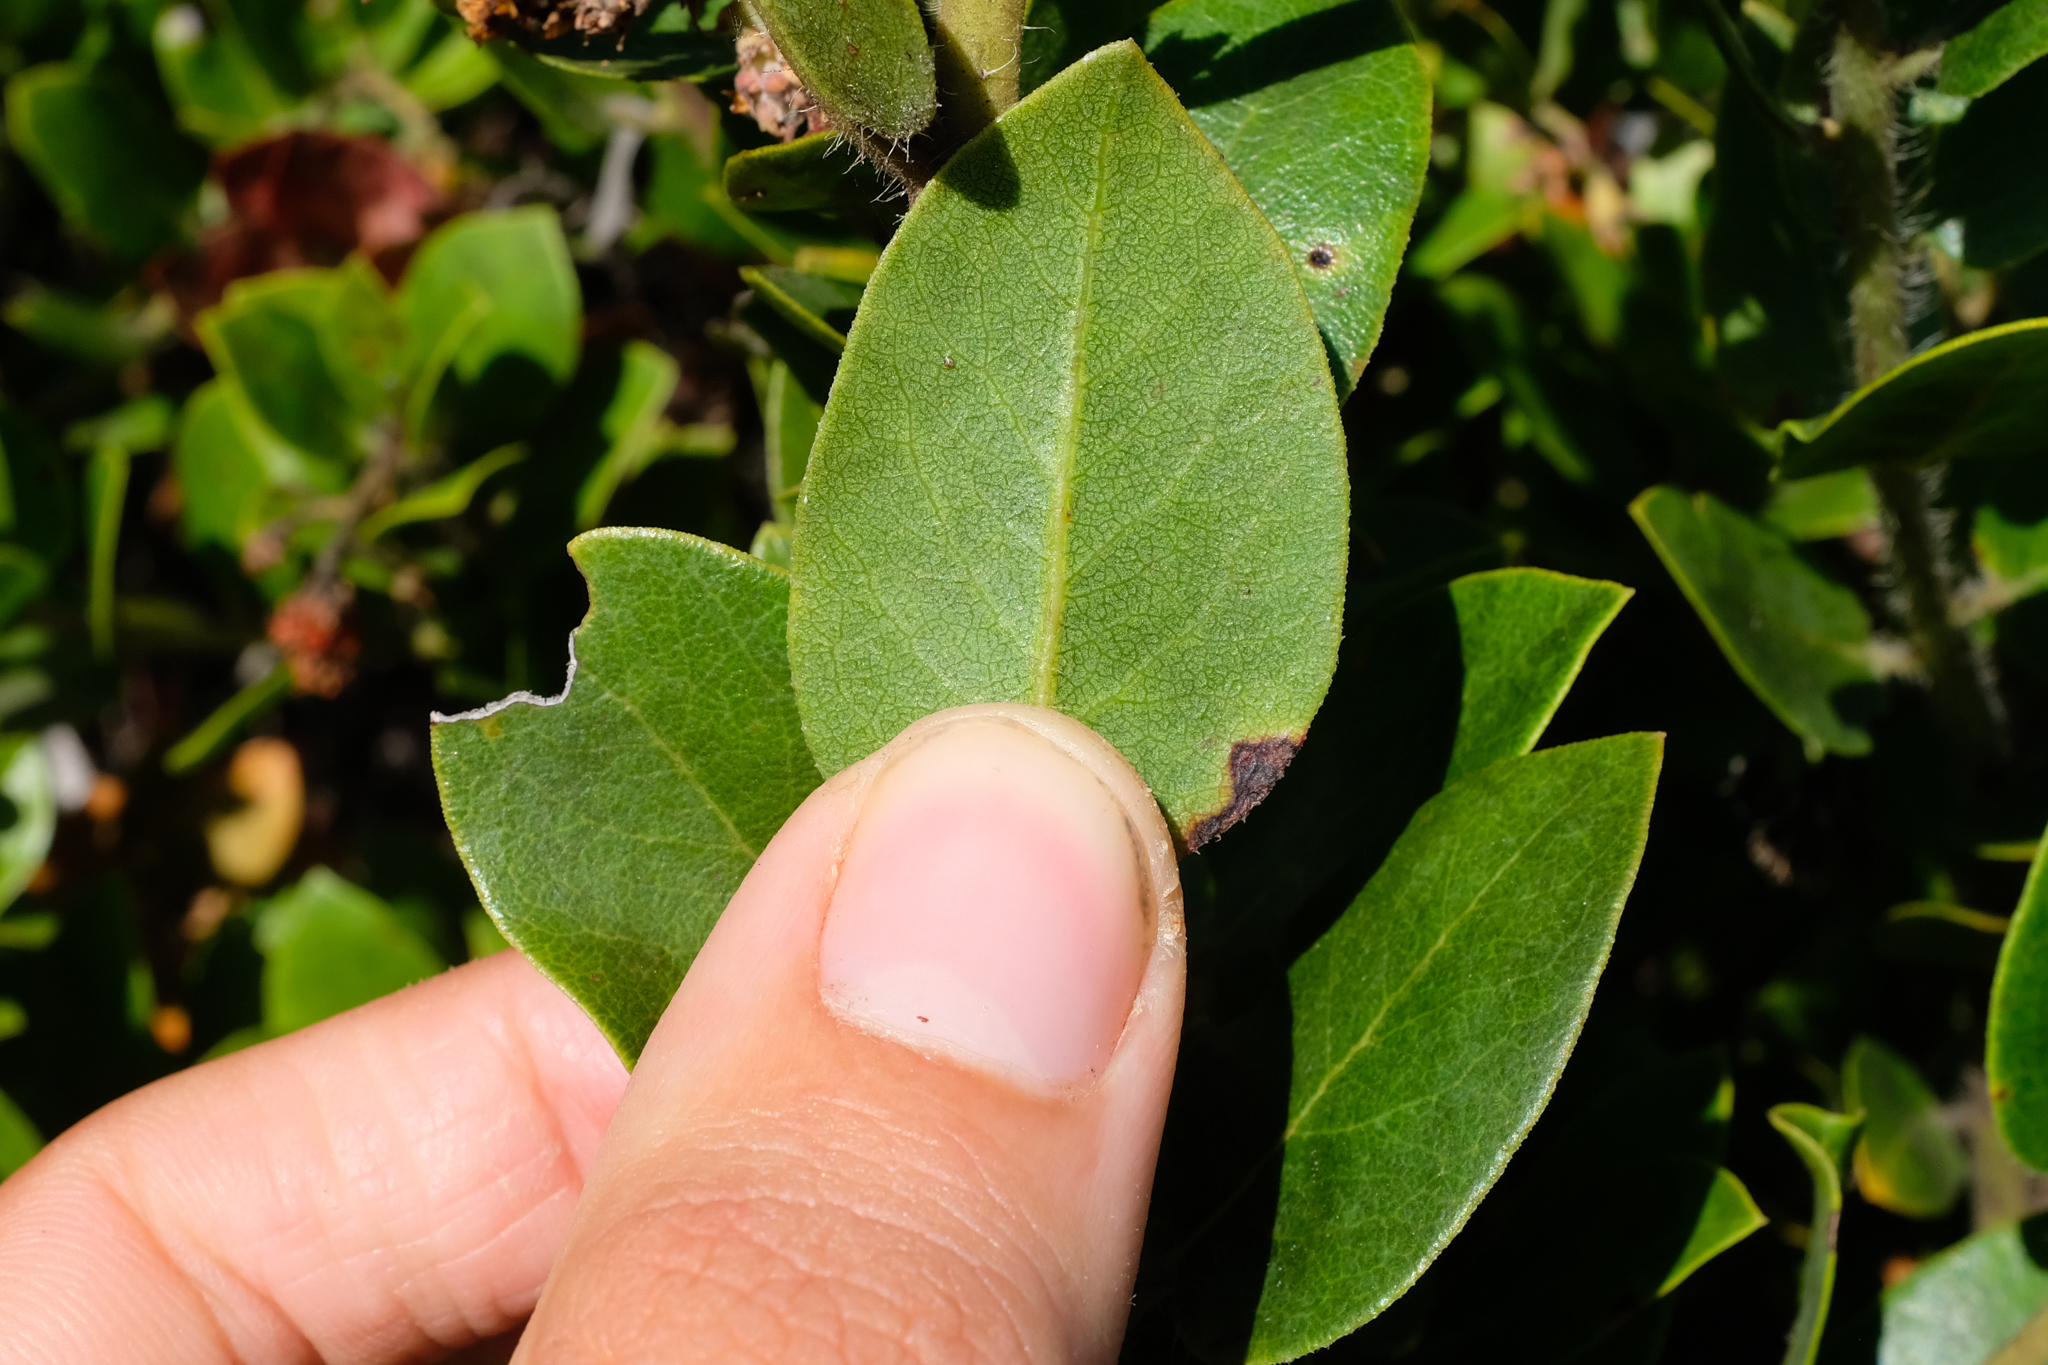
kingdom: Plantae
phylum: Tracheophyta
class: Magnoliopsida
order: Ericales
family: Ericaceae
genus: Arctostaphylos
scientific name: Arctostaphylos crustacea
